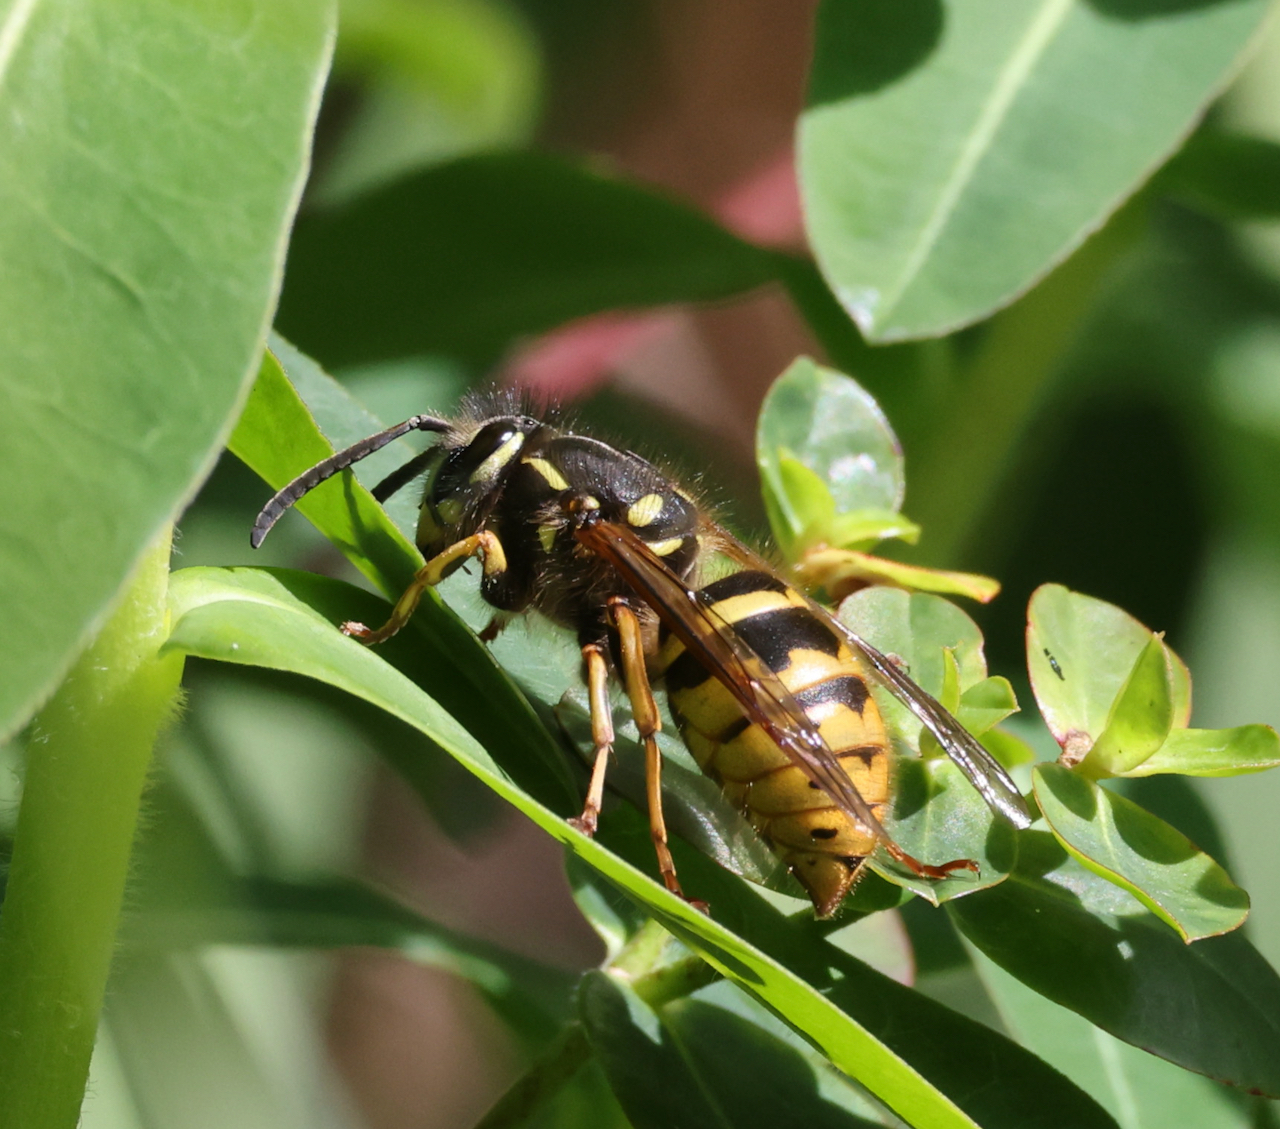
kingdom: Animalia
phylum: Arthropoda
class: Insecta
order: Hymenoptera
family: Vespidae
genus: Vespula
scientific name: Vespula vulgaris
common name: Common wasp
